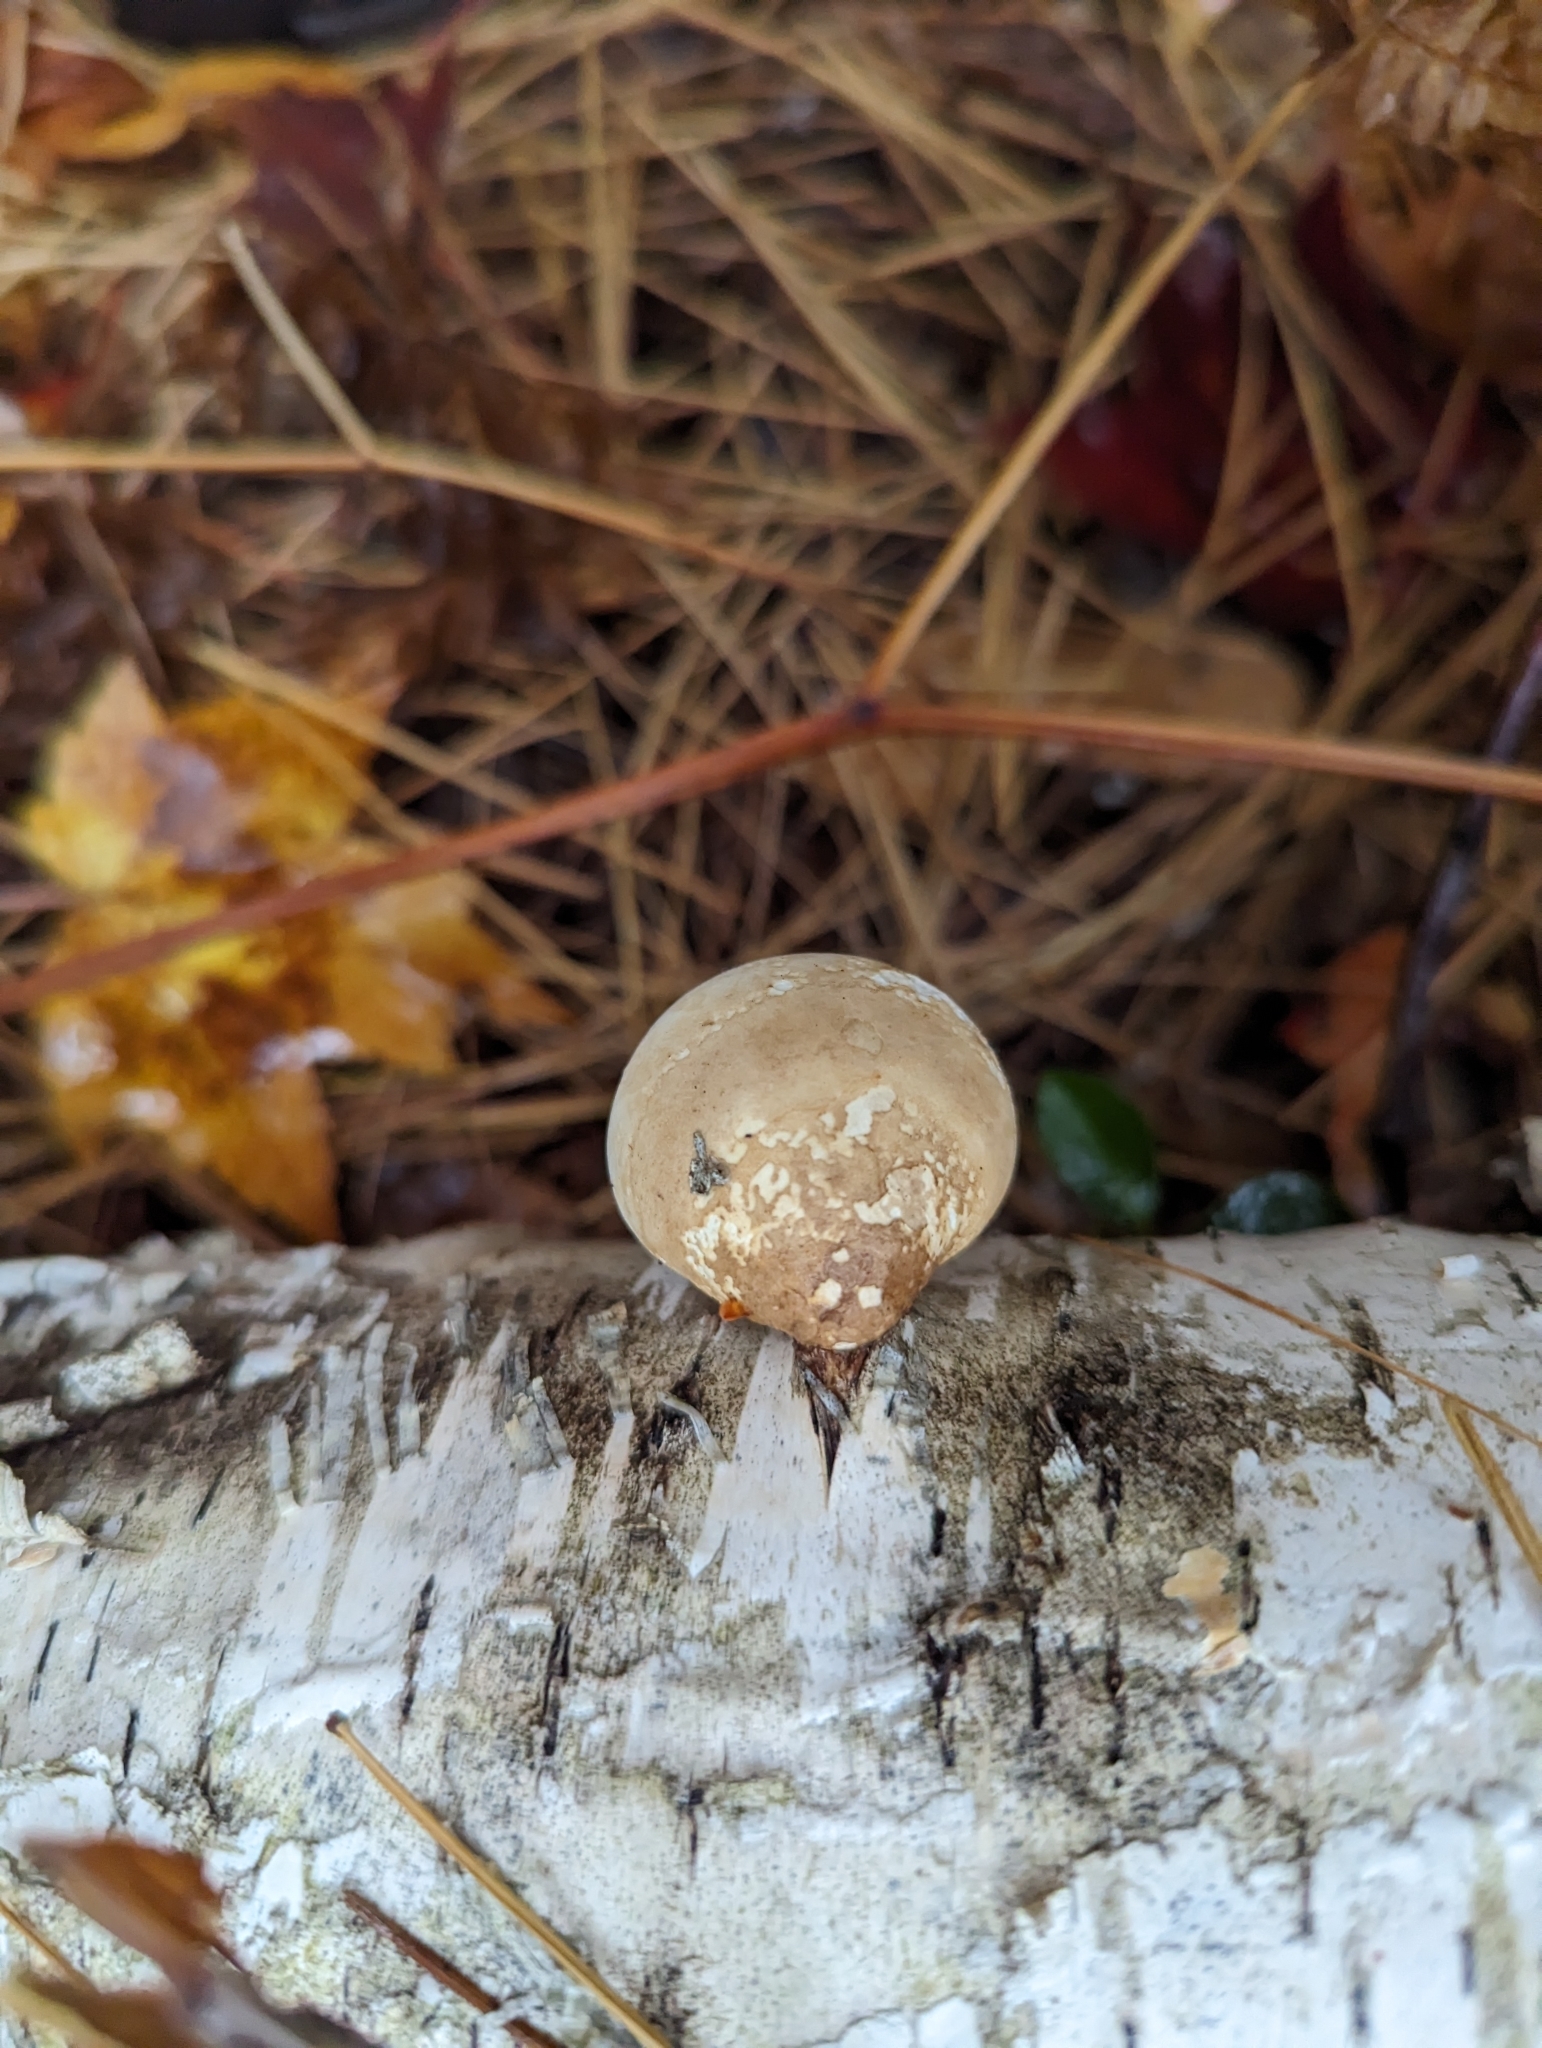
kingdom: Fungi
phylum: Basidiomycota
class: Agaricomycetes
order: Polyporales
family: Fomitopsidaceae
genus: Fomitopsis
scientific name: Fomitopsis betulina
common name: Birch polypore
